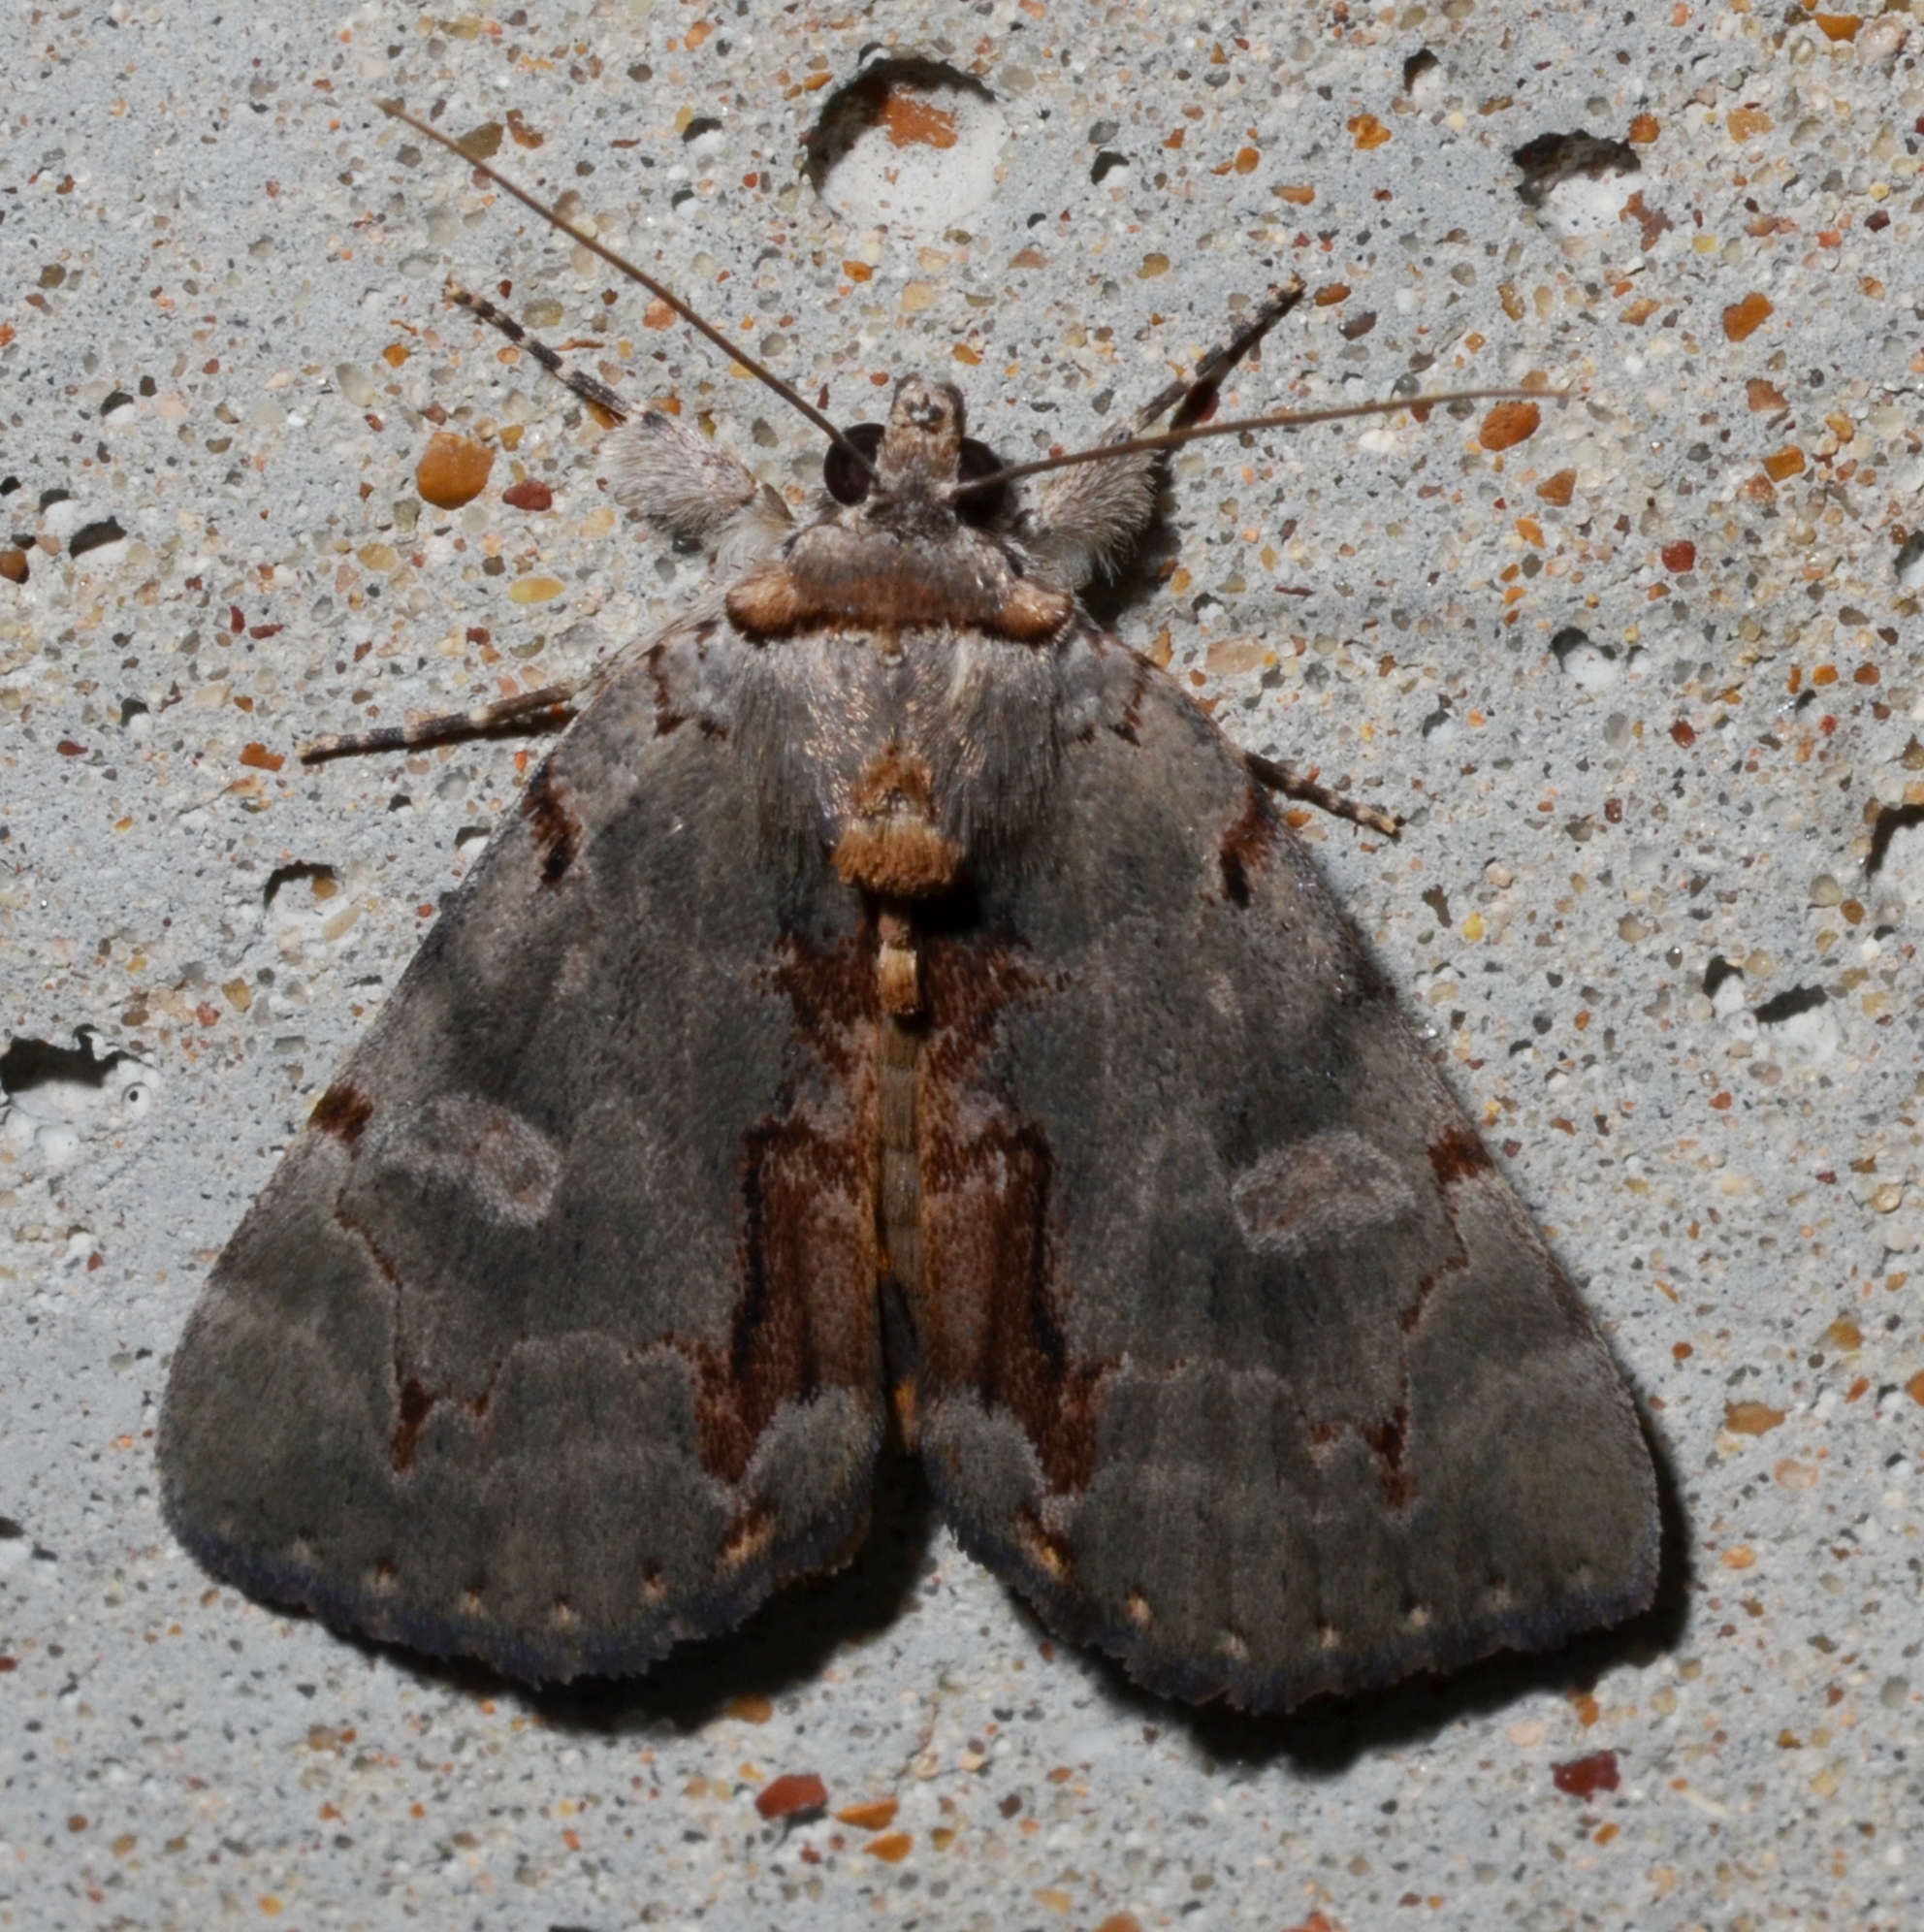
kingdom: Animalia
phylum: Arthropoda
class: Insecta
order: Lepidoptera
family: Erebidae
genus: Catocala
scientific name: Catocala grynea
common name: Woody underwing
